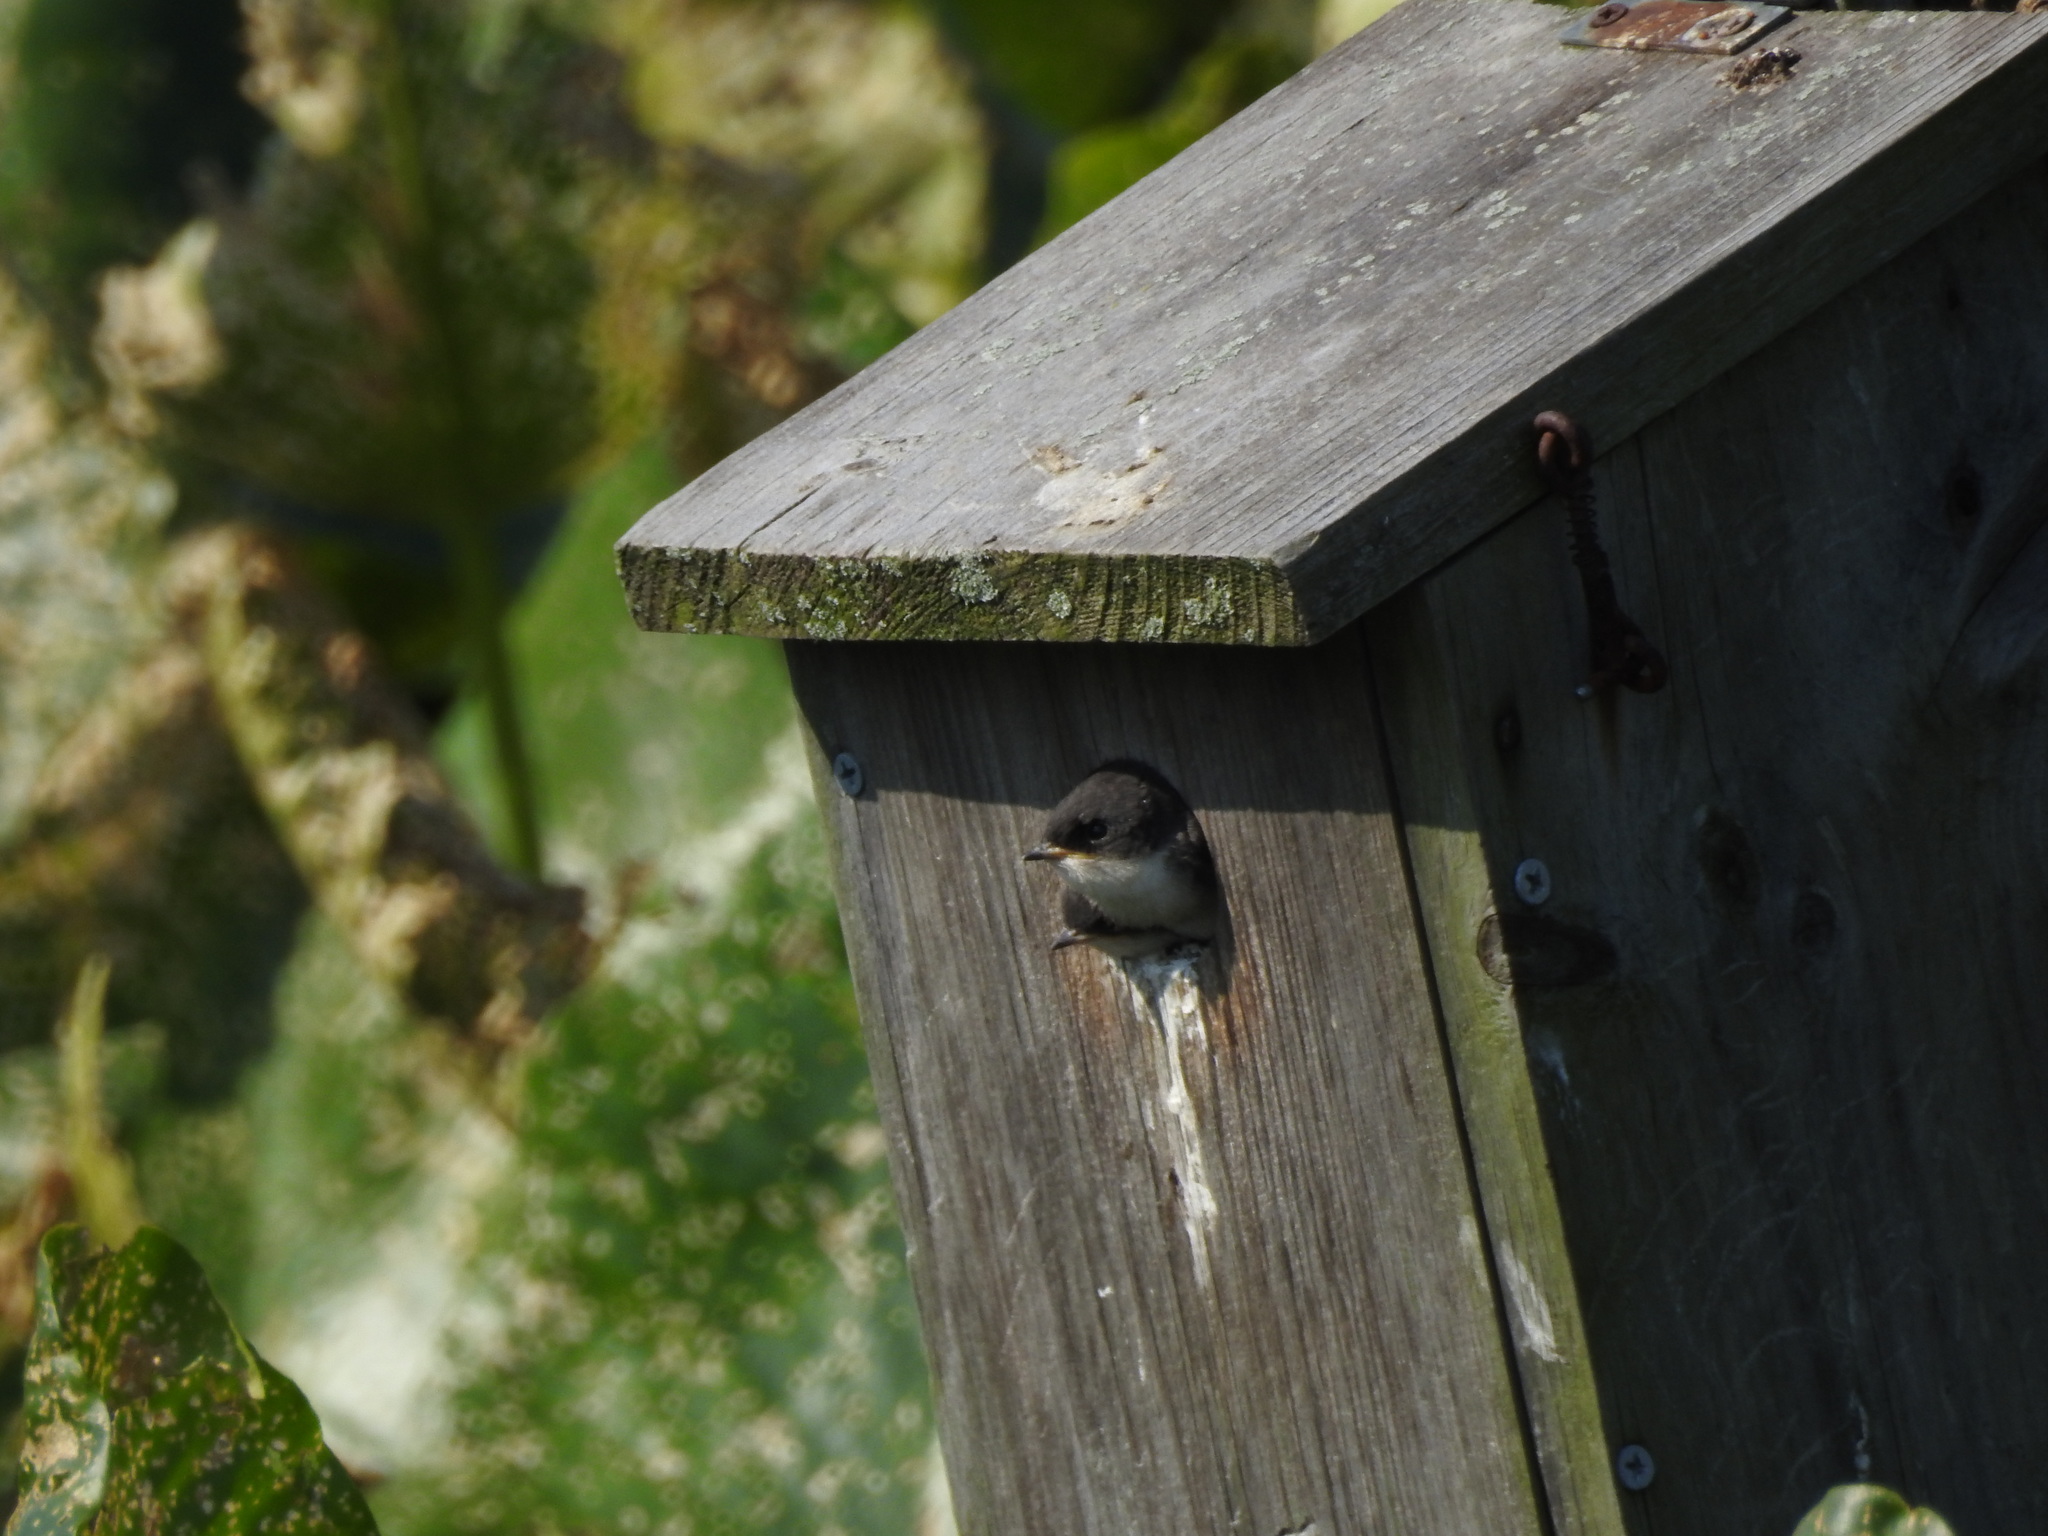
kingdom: Animalia
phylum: Chordata
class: Aves
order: Passeriformes
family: Hirundinidae
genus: Tachycineta
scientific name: Tachycineta bicolor
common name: Tree swallow
